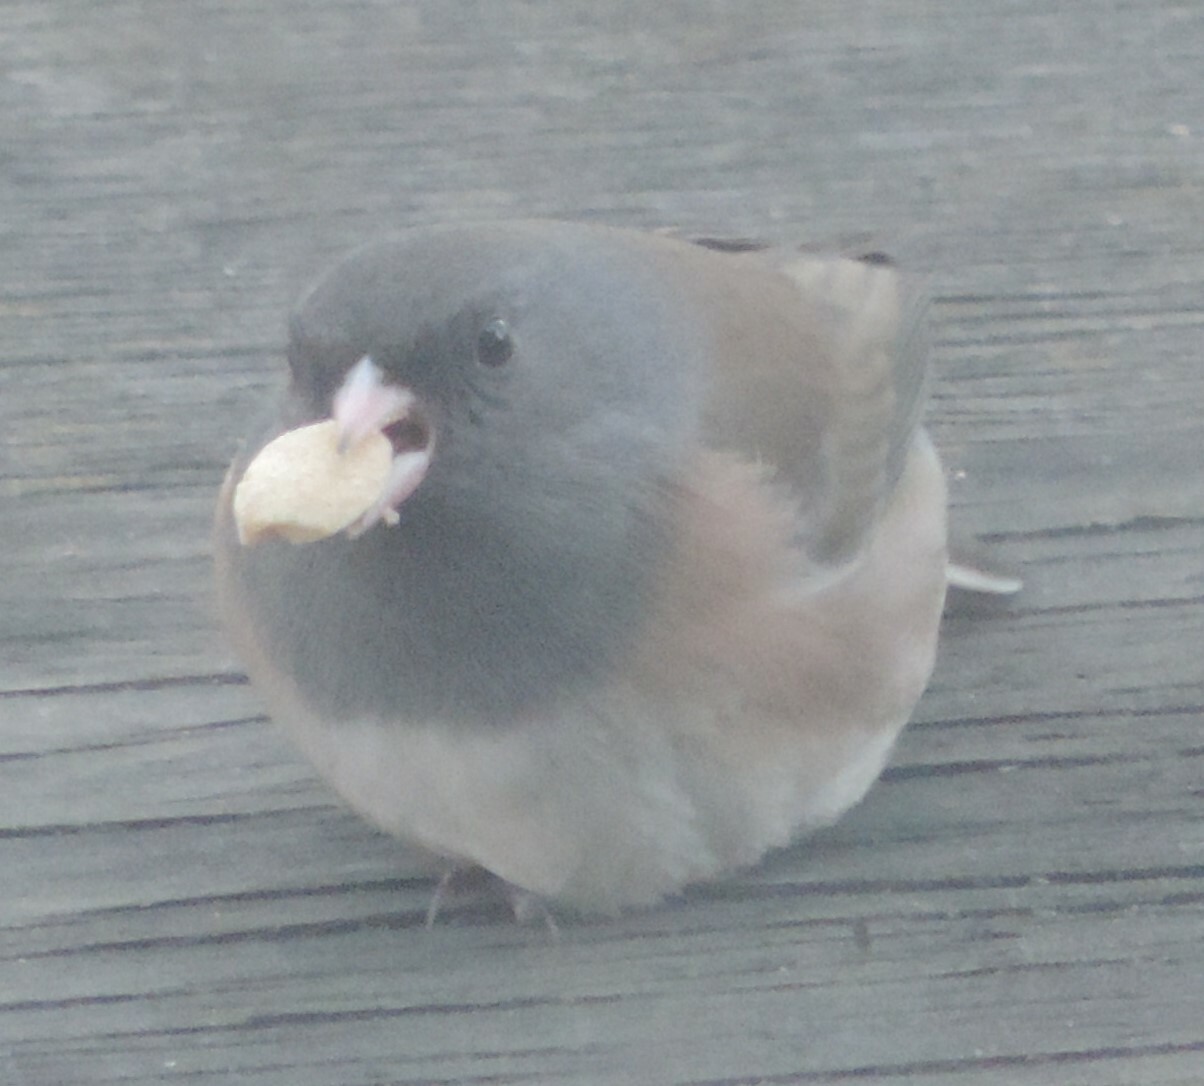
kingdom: Animalia
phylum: Chordata
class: Aves
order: Passeriformes
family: Passerellidae
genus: Junco
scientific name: Junco hyemalis
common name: Dark-eyed junco
